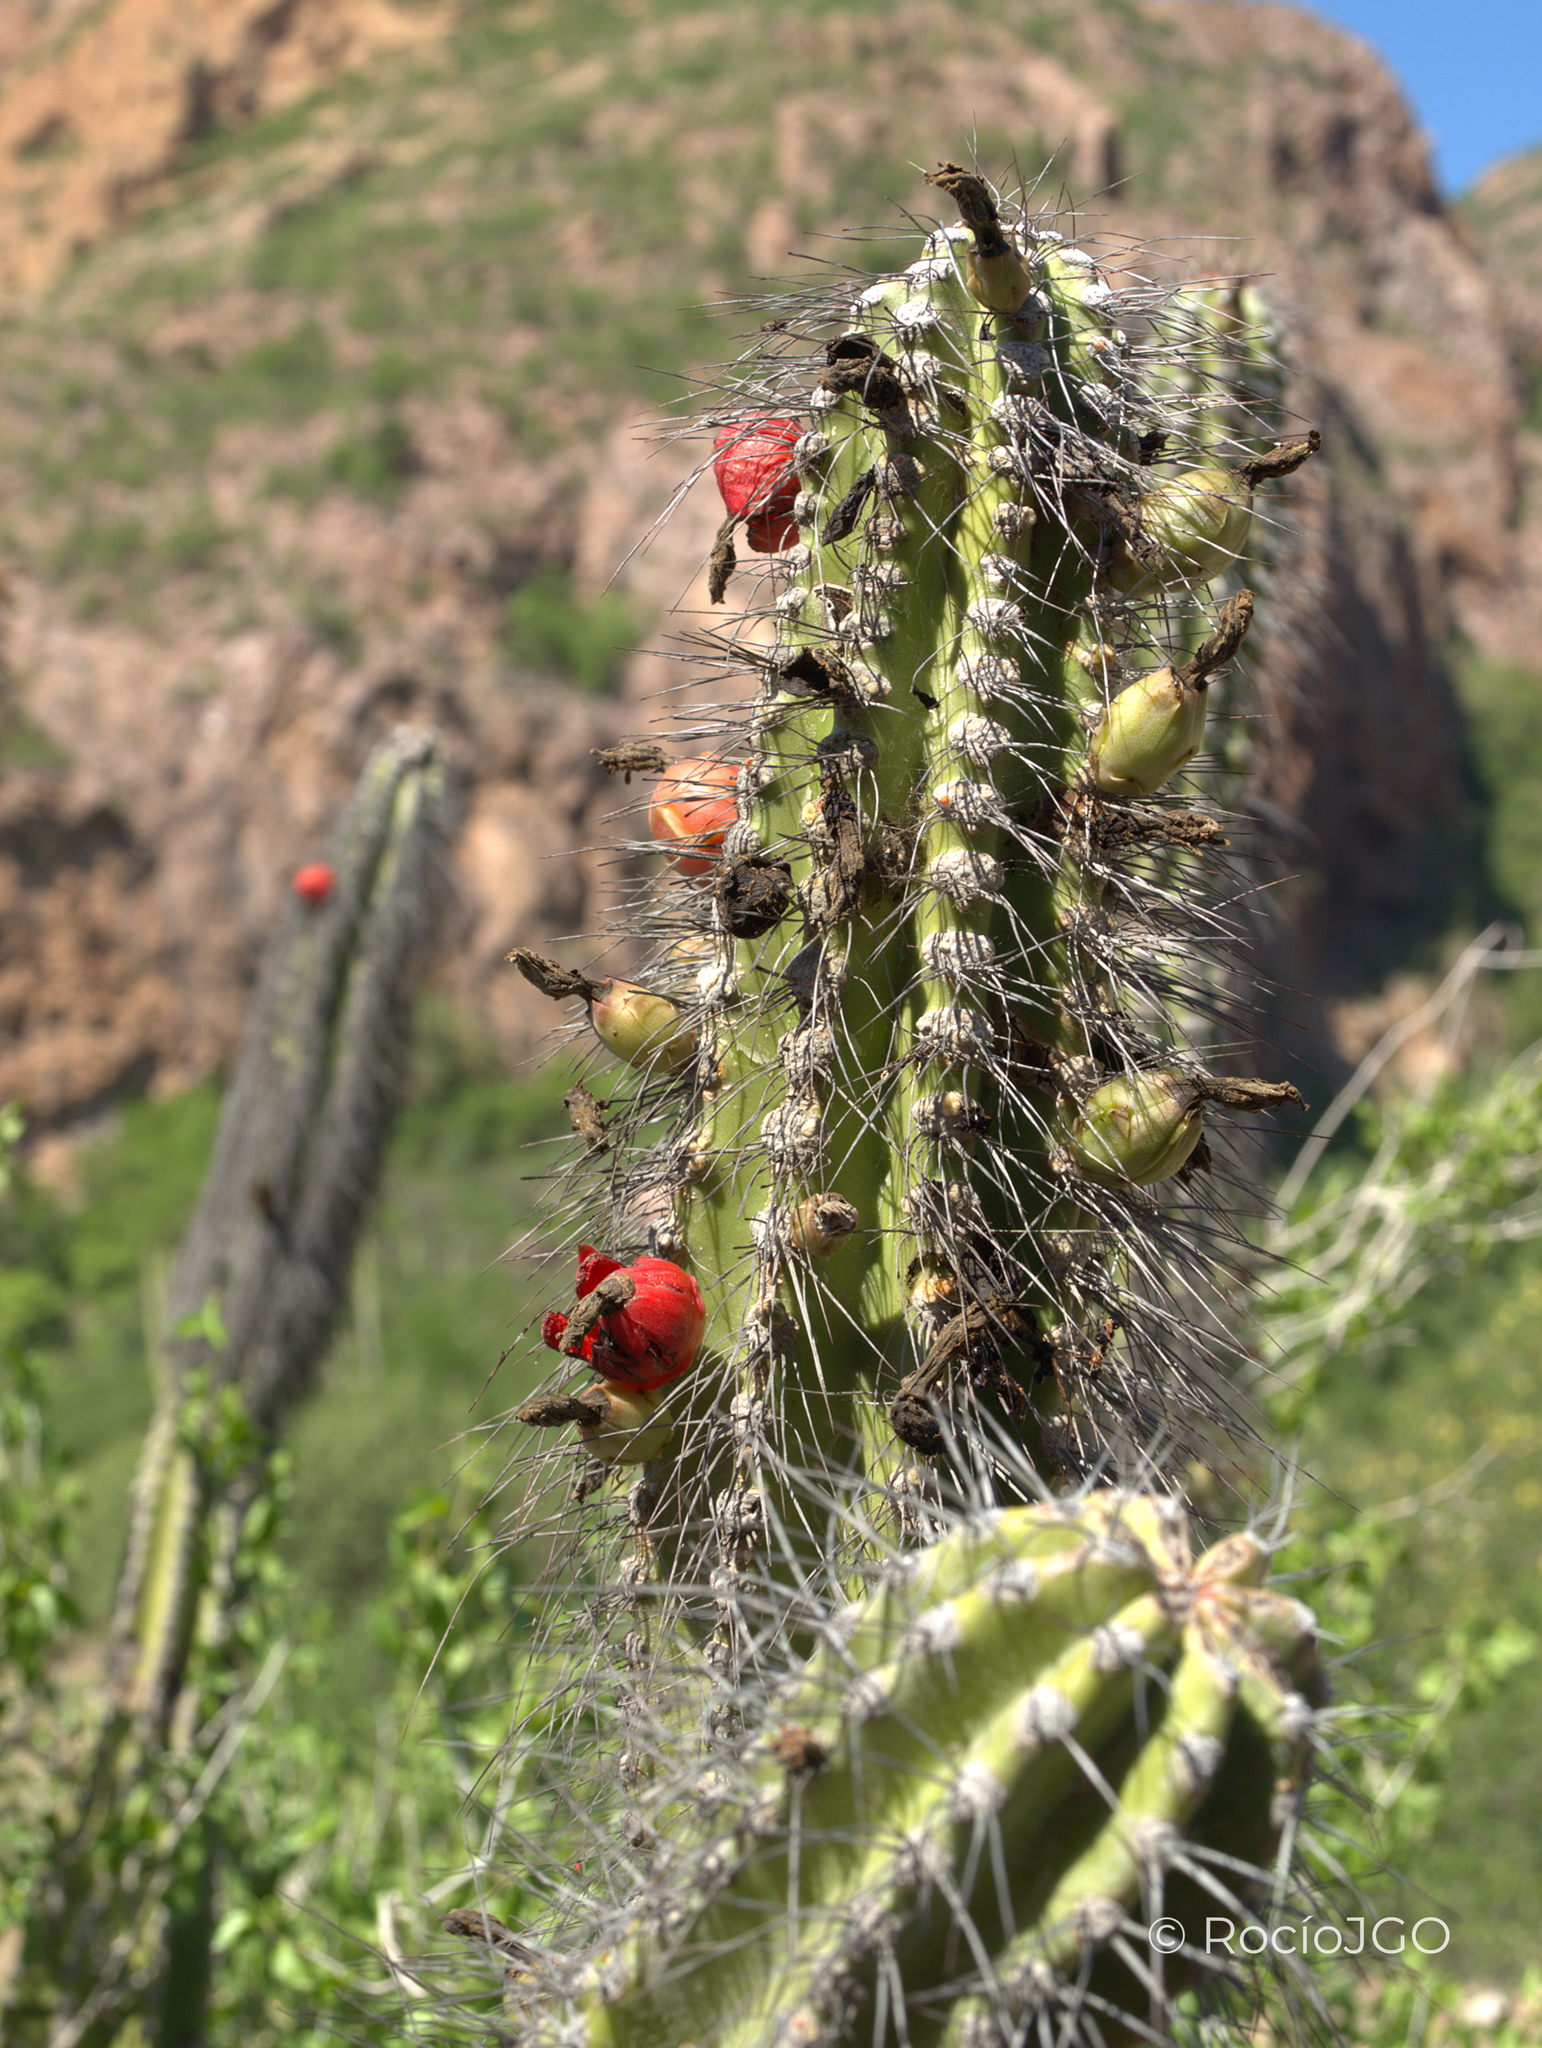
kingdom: Plantae
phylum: Tracheophyta
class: Magnoliopsida
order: Caryophyllales
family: Cactaceae
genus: Pachycereus
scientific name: Pachycereus schottii
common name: Senita cactus
